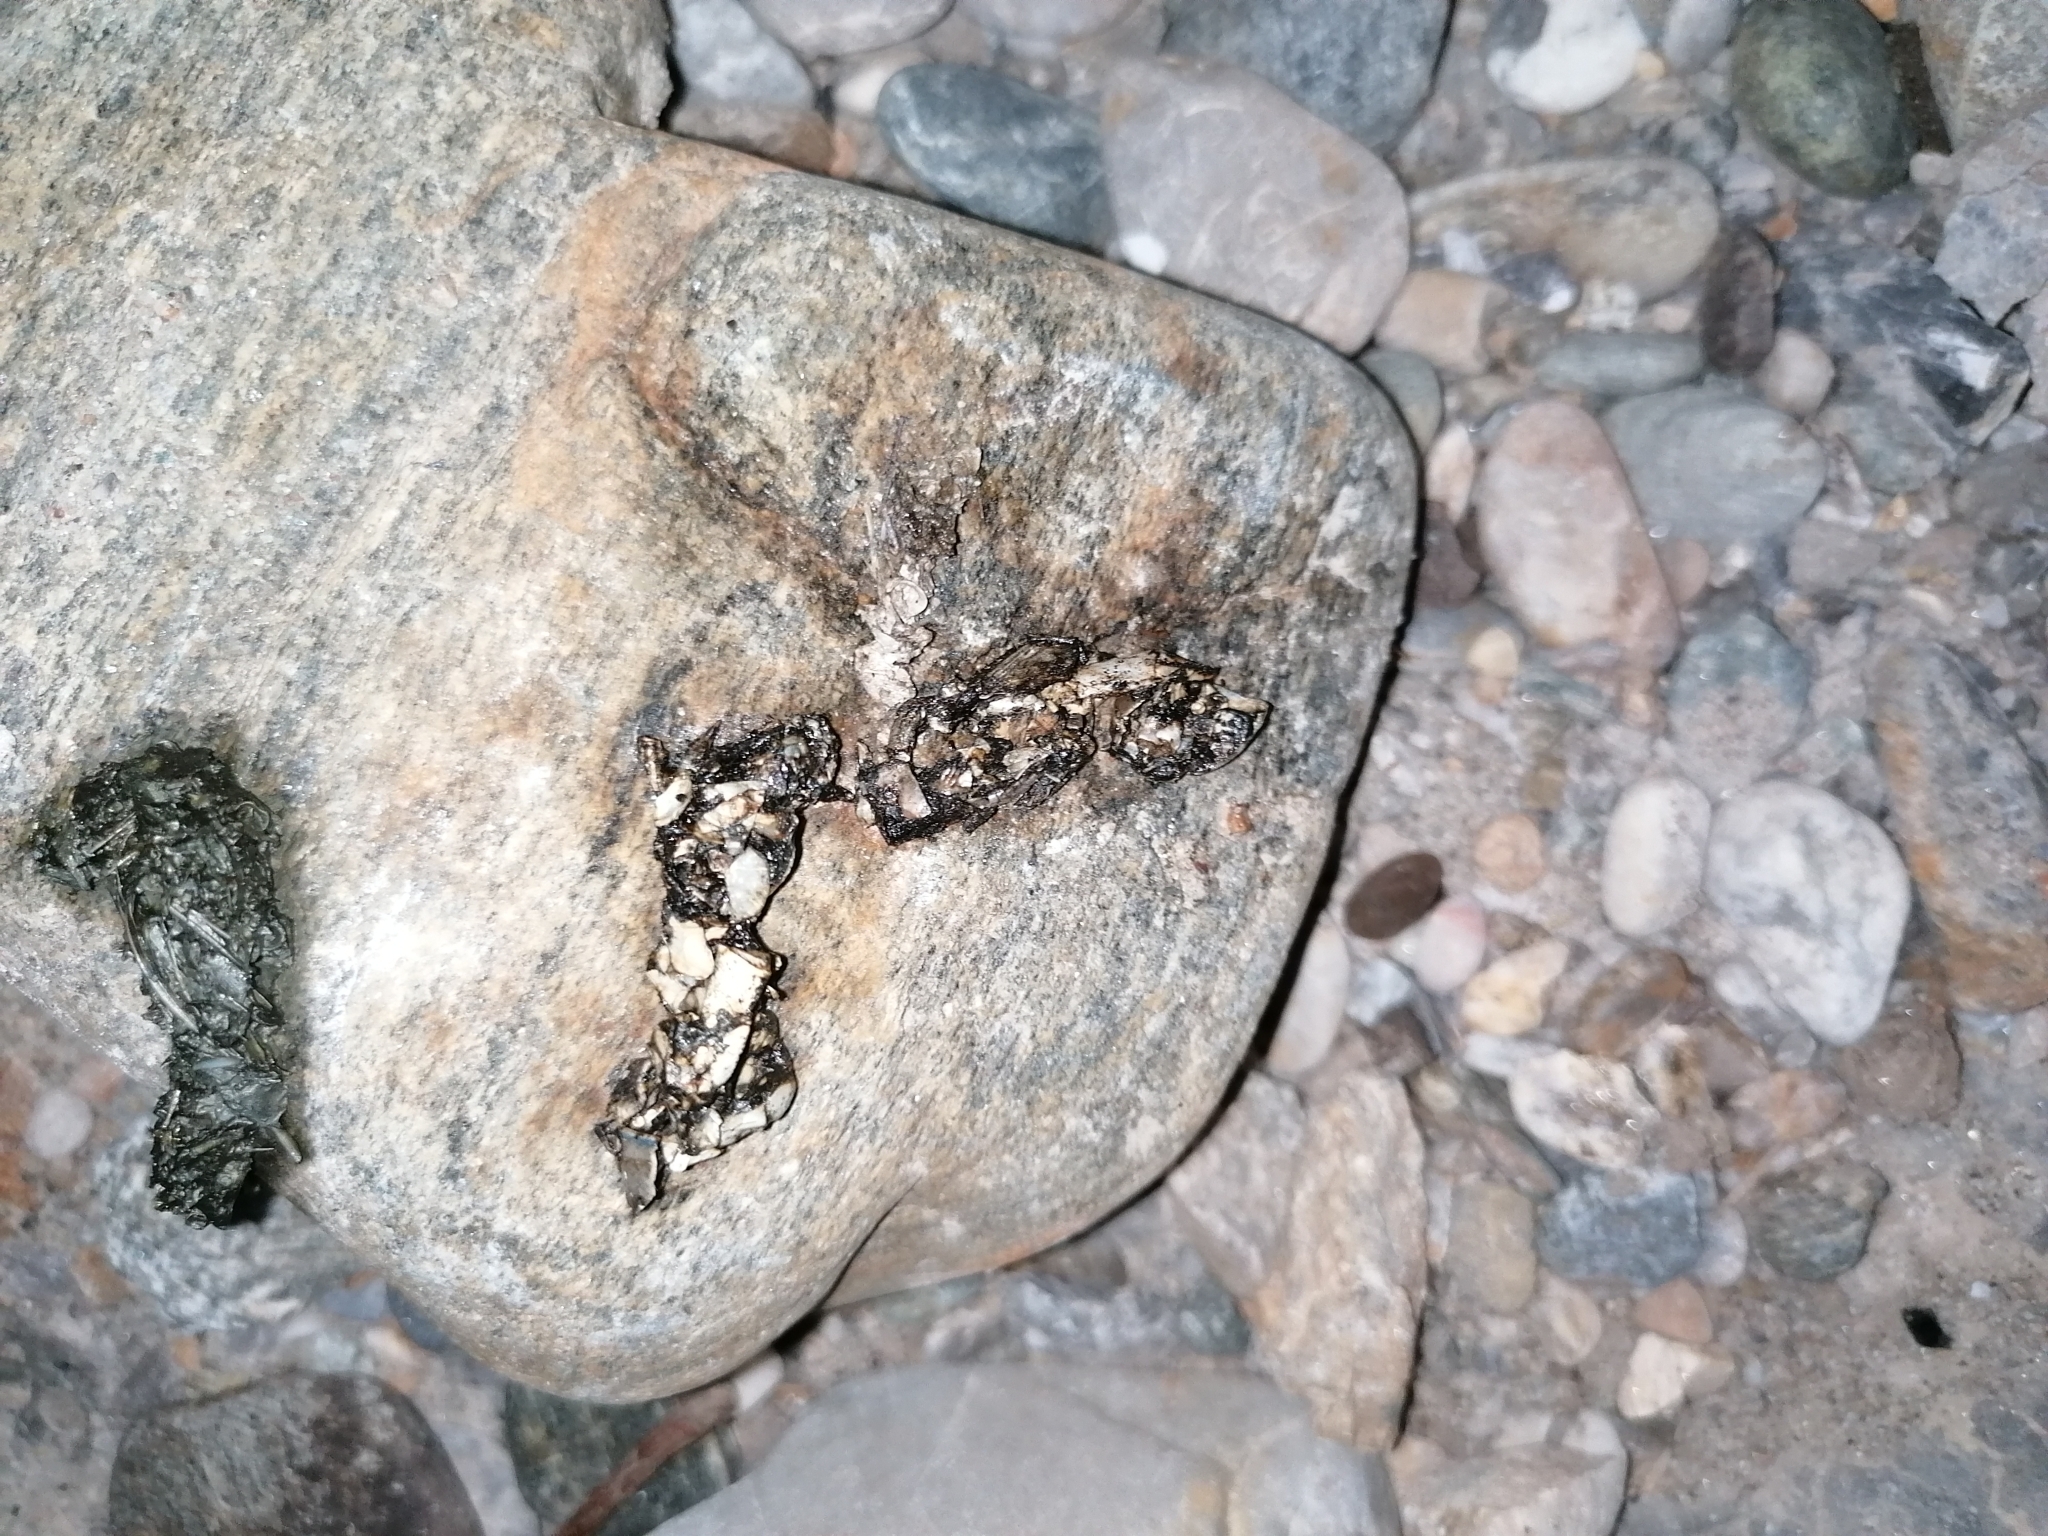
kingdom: Animalia
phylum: Chordata
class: Mammalia
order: Carnivora
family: Mustelidae
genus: Lutra
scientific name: Lutra lutra
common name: European otter
